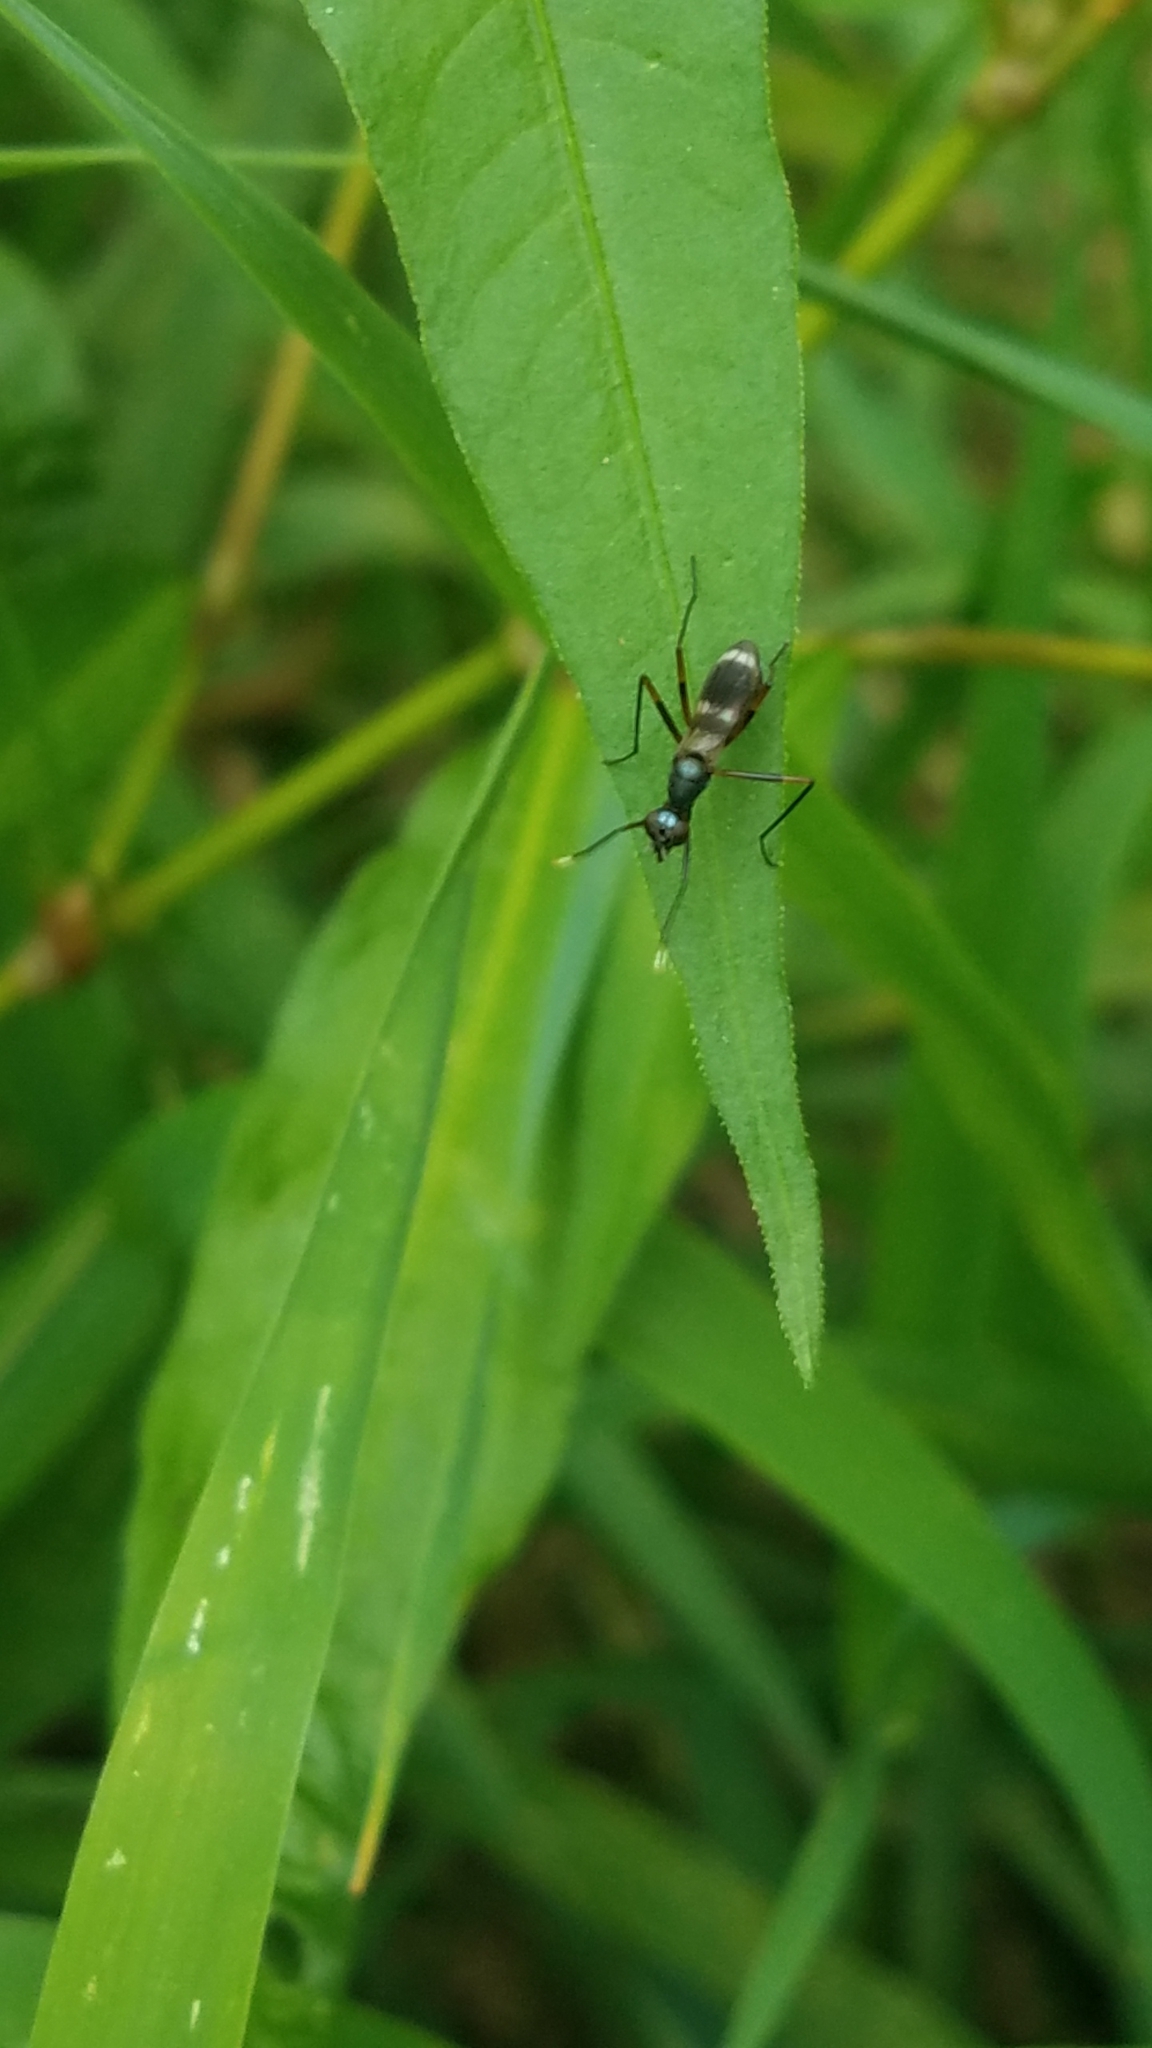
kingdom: Animalia
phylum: Arthropoda
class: Insecta
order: Diptera
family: Micropezidae
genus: Taeniaptera
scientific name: Taeniaptera trivittata
